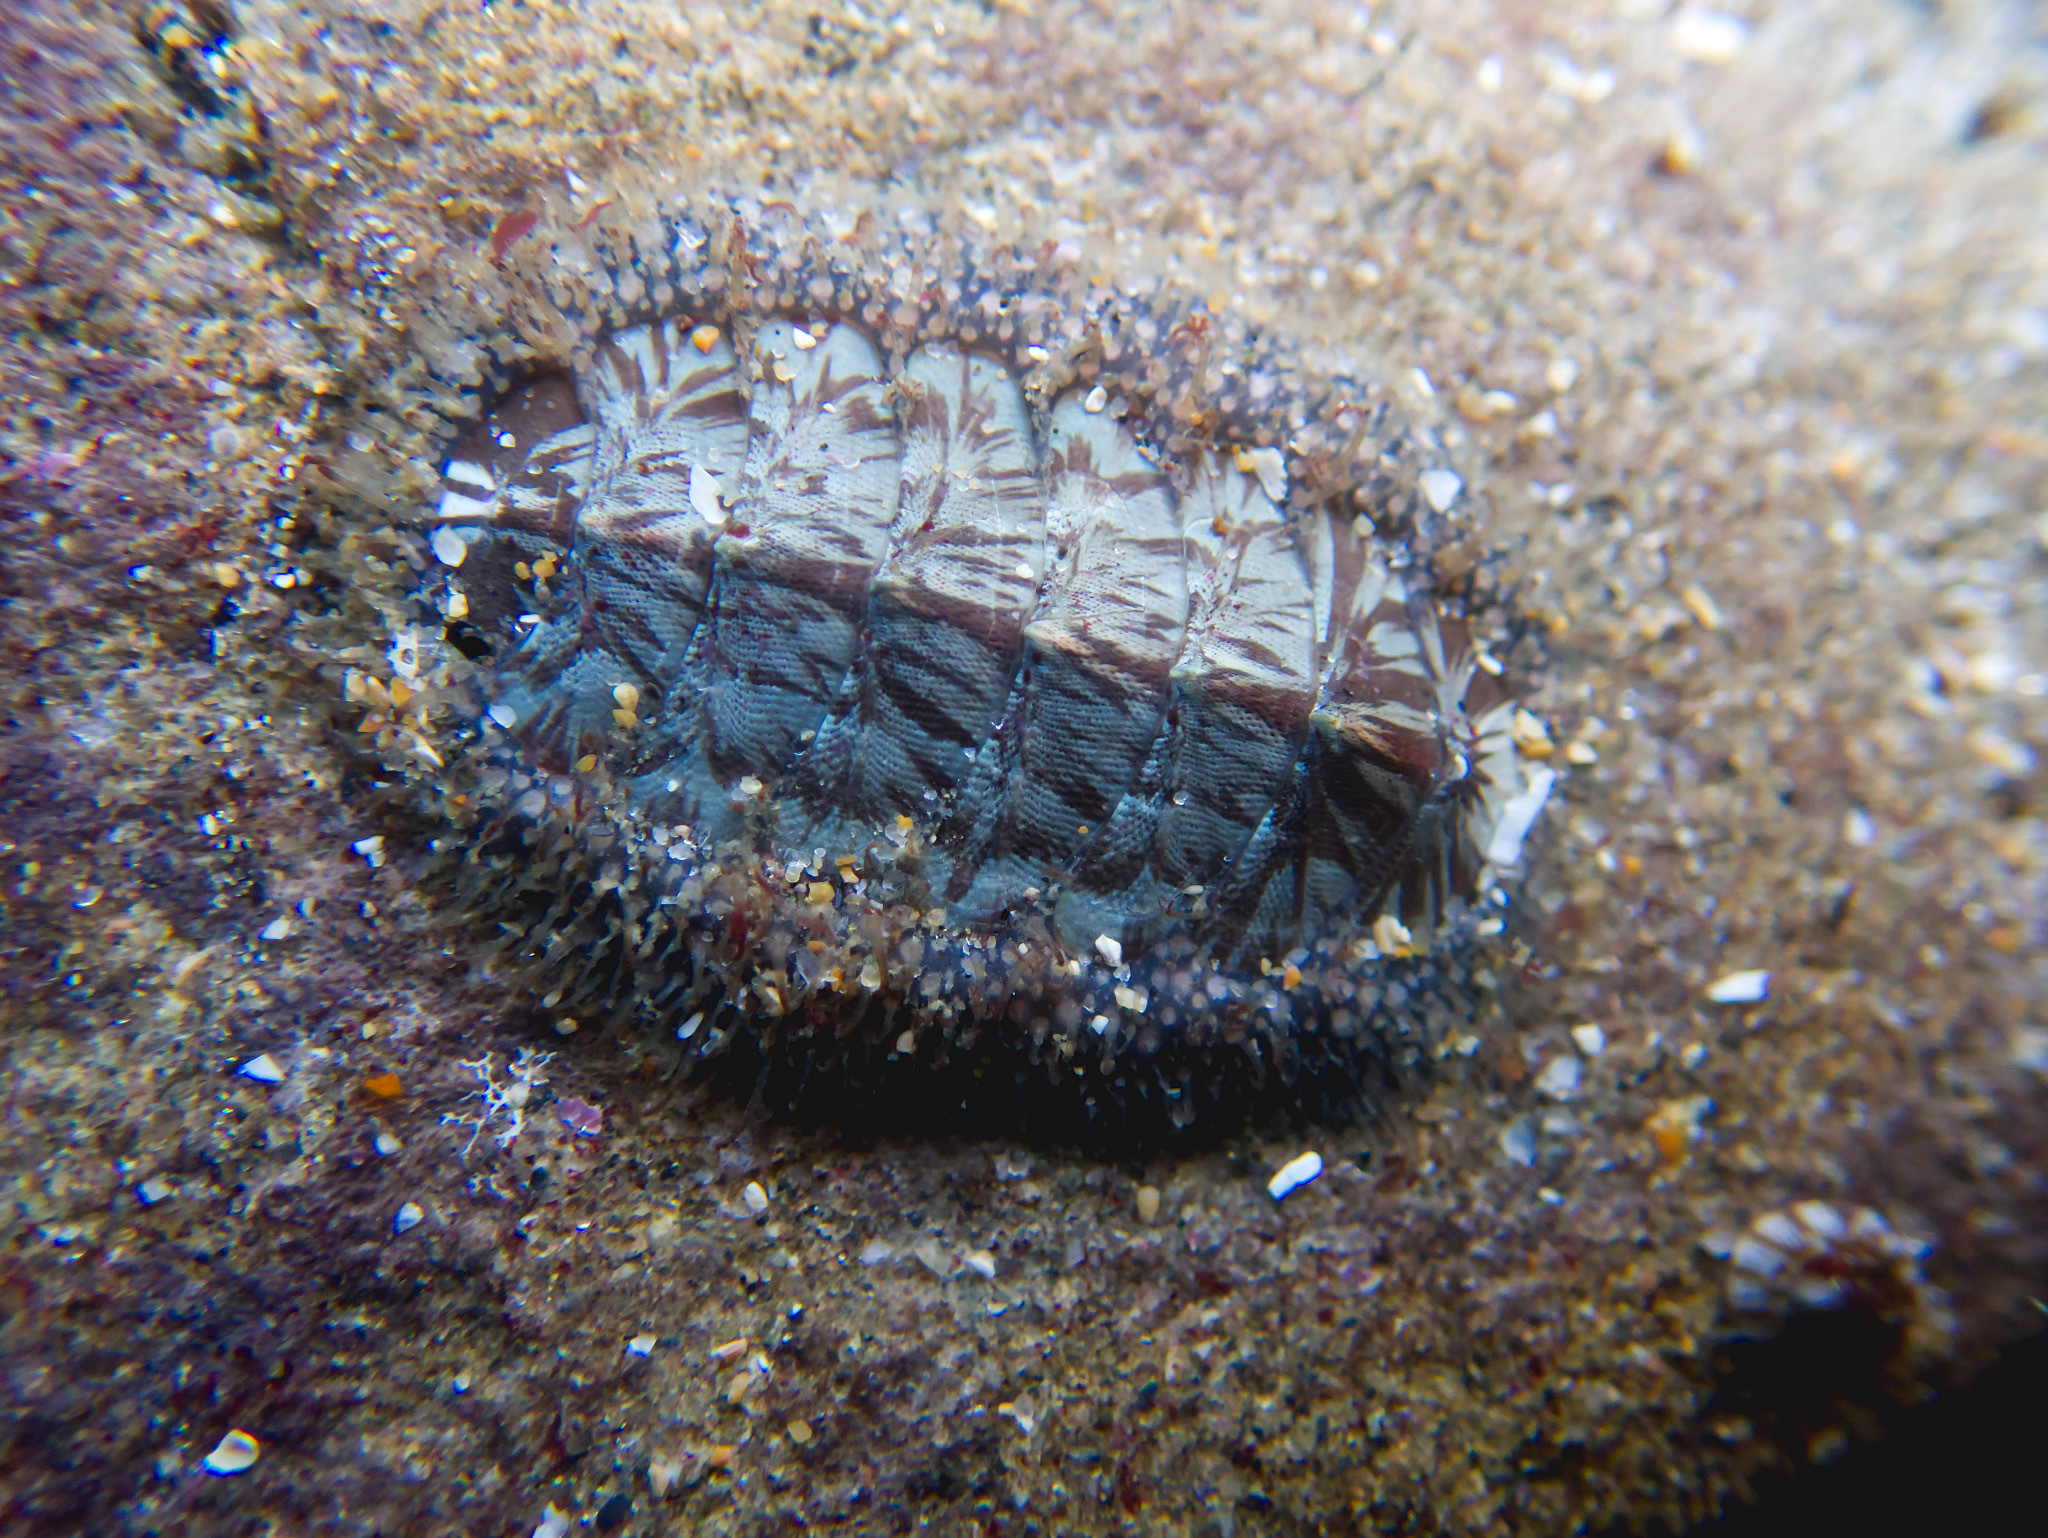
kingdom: Animalia
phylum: Mollusca
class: Polyplacophora
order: Chitonida
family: Mopaliidae
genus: Mopalia
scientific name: Mopalia lignosa
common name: Woody chiton
